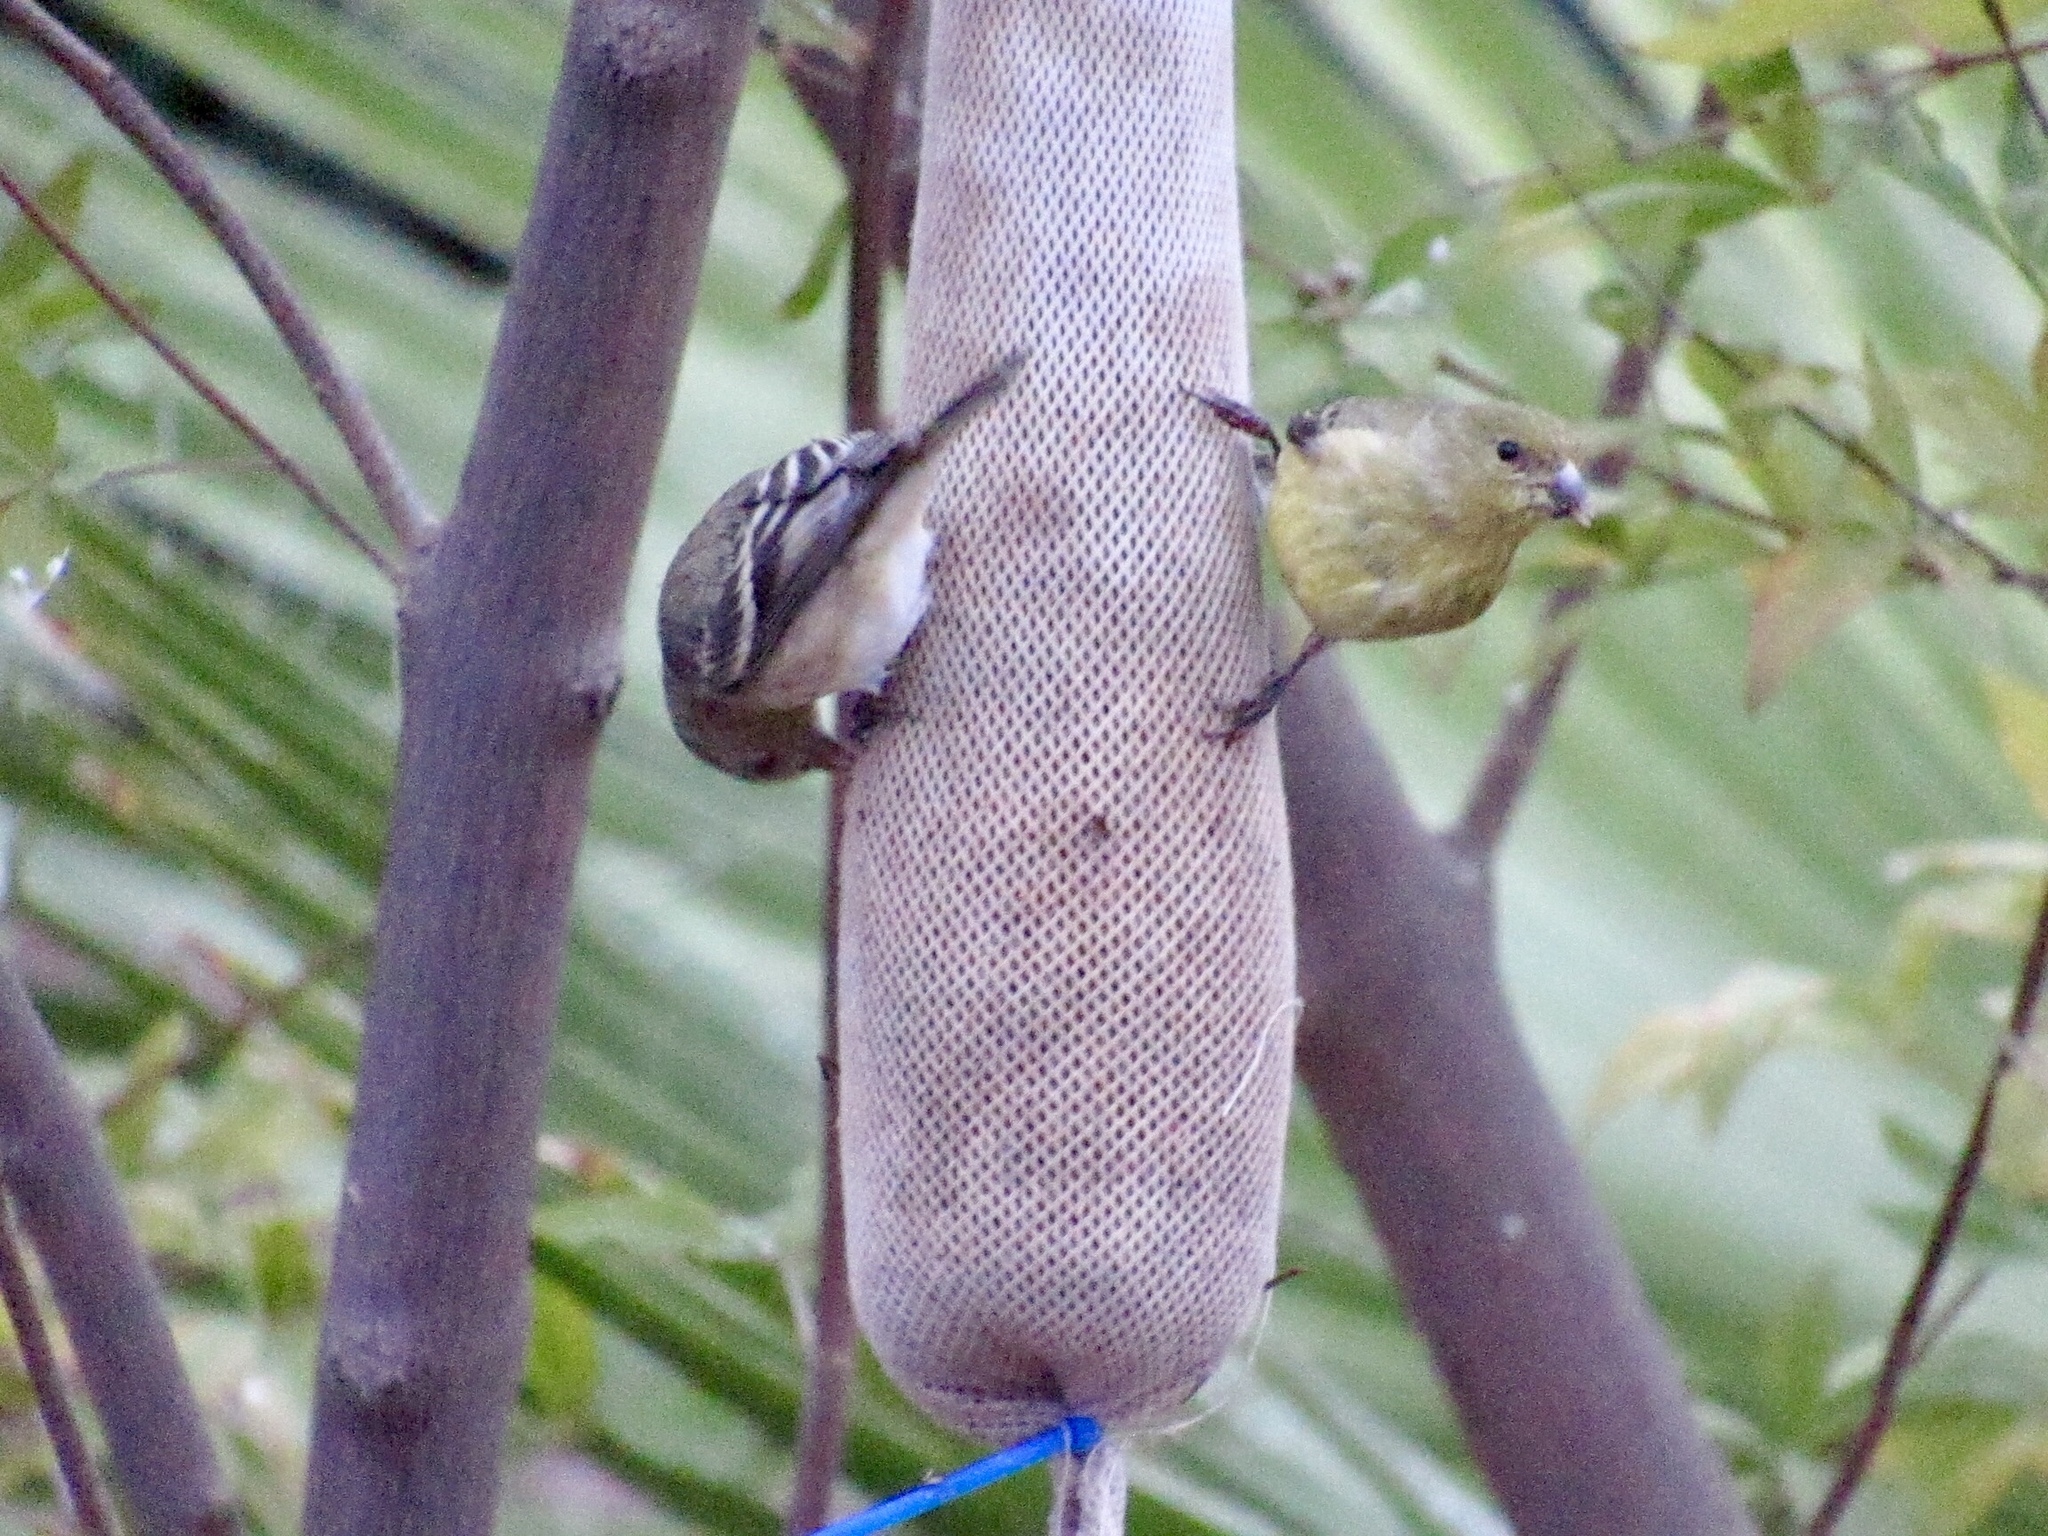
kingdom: Animalia
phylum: Chordata
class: Aves
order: Passeriformes
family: Fringillidae
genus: Spinus
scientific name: Spinus psaltria
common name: Lesser goldfinch
